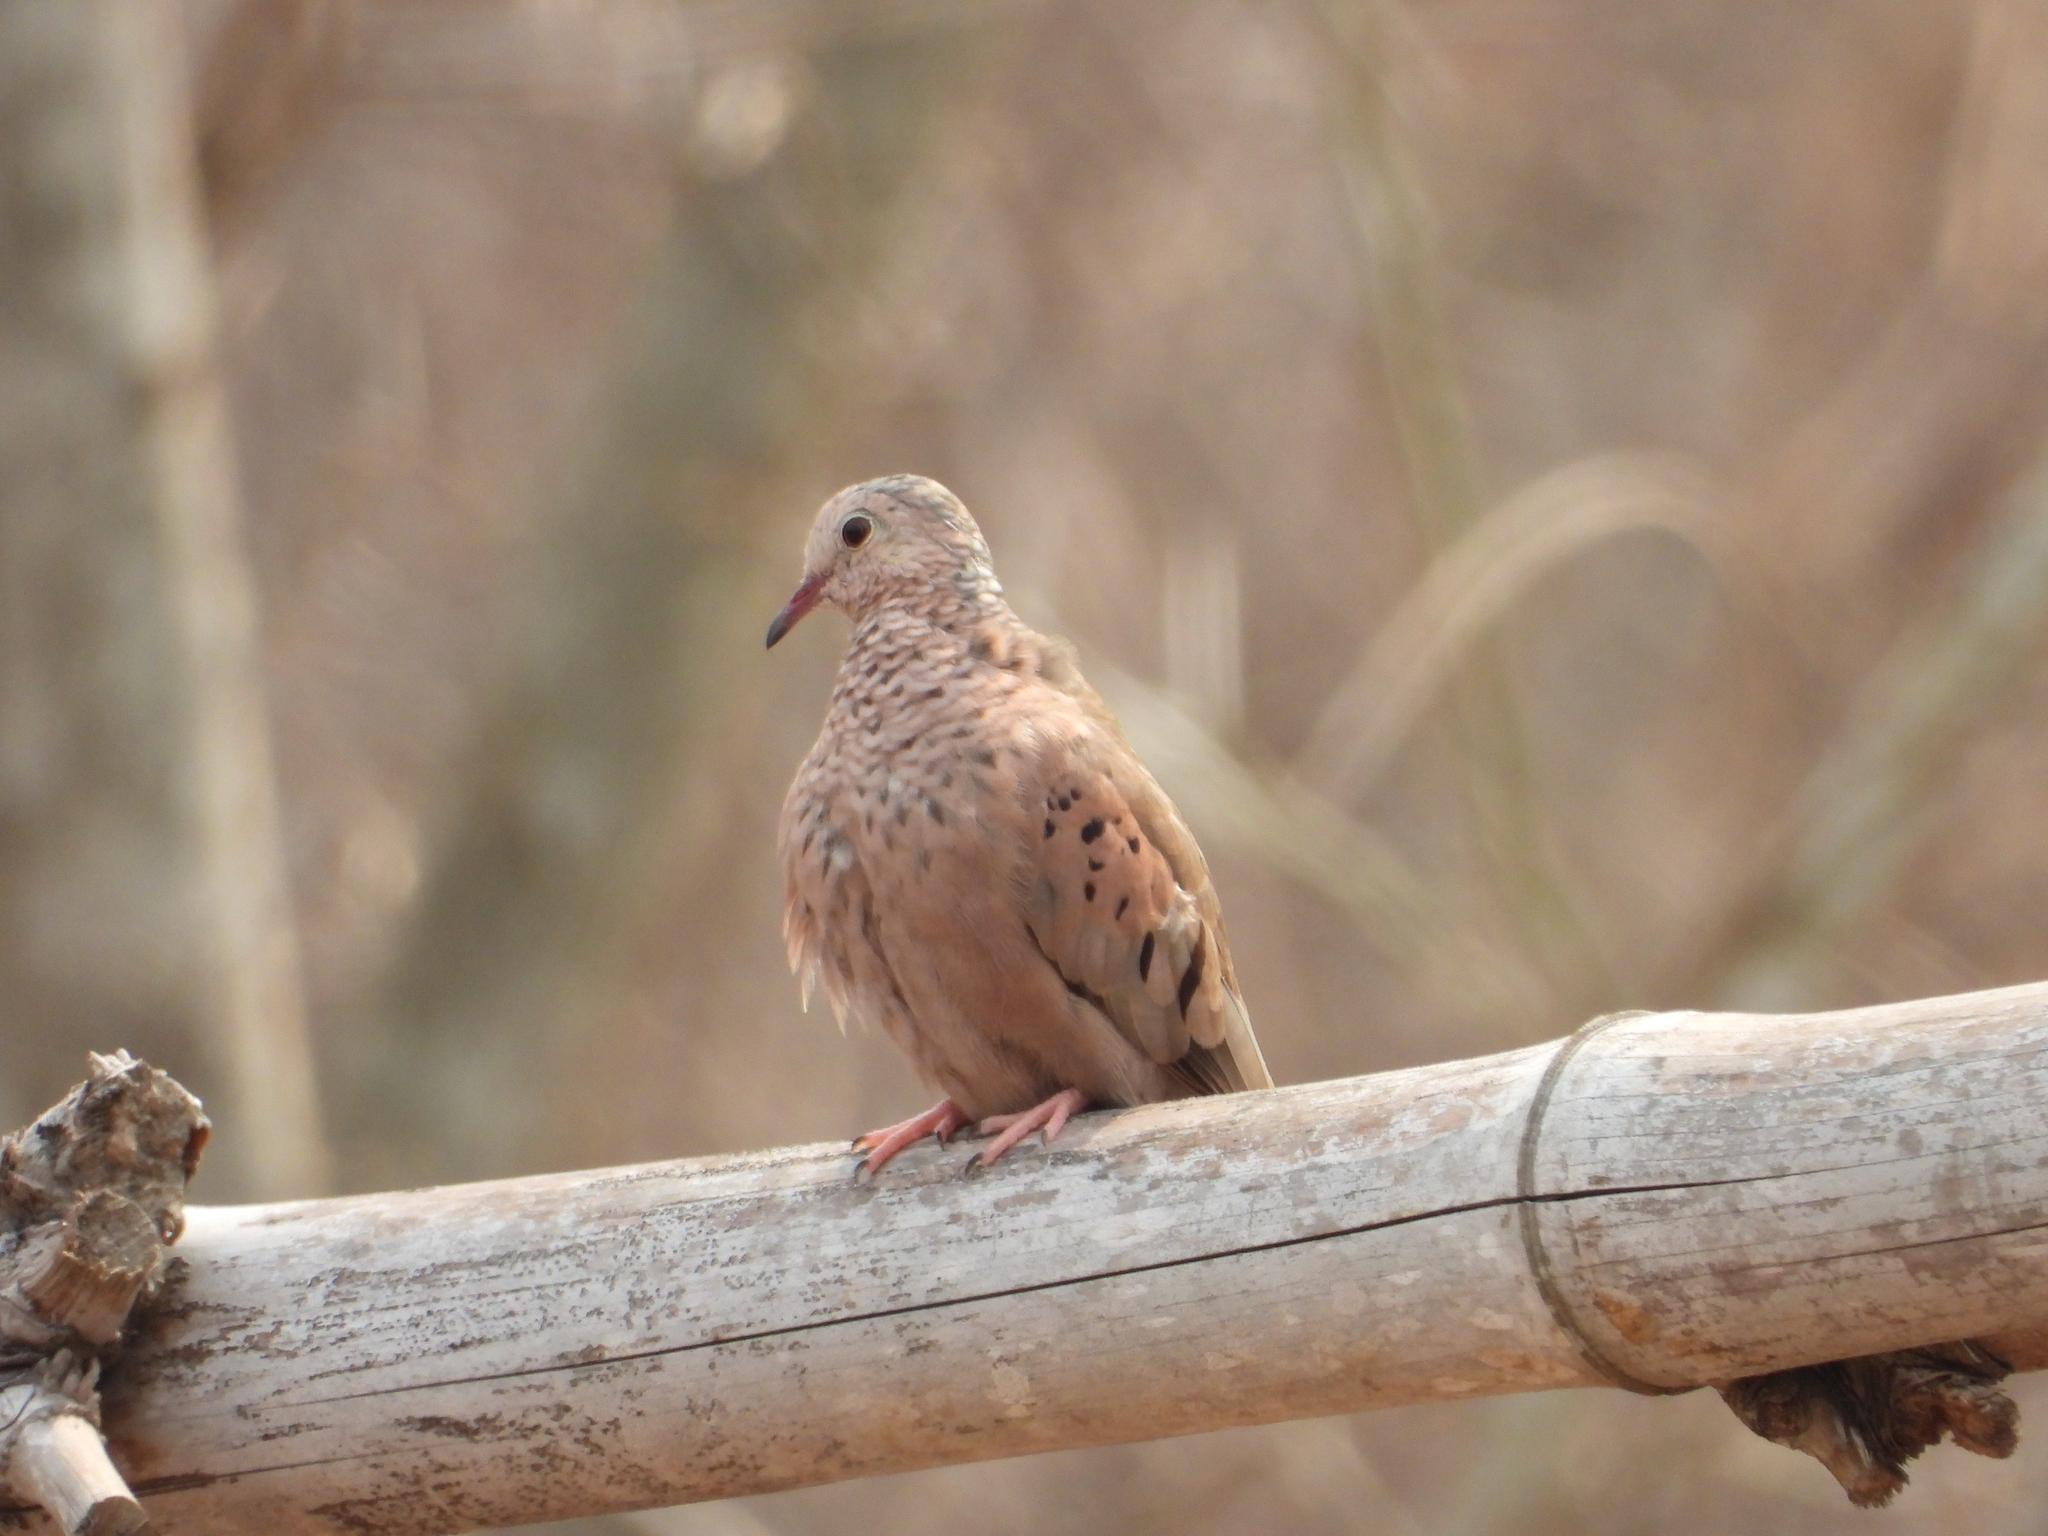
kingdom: Animalia
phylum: Chordata
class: Aves
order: Columbiformes
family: Columbidae
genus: Columbina
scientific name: Columbina passerina
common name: Common ground-dove
